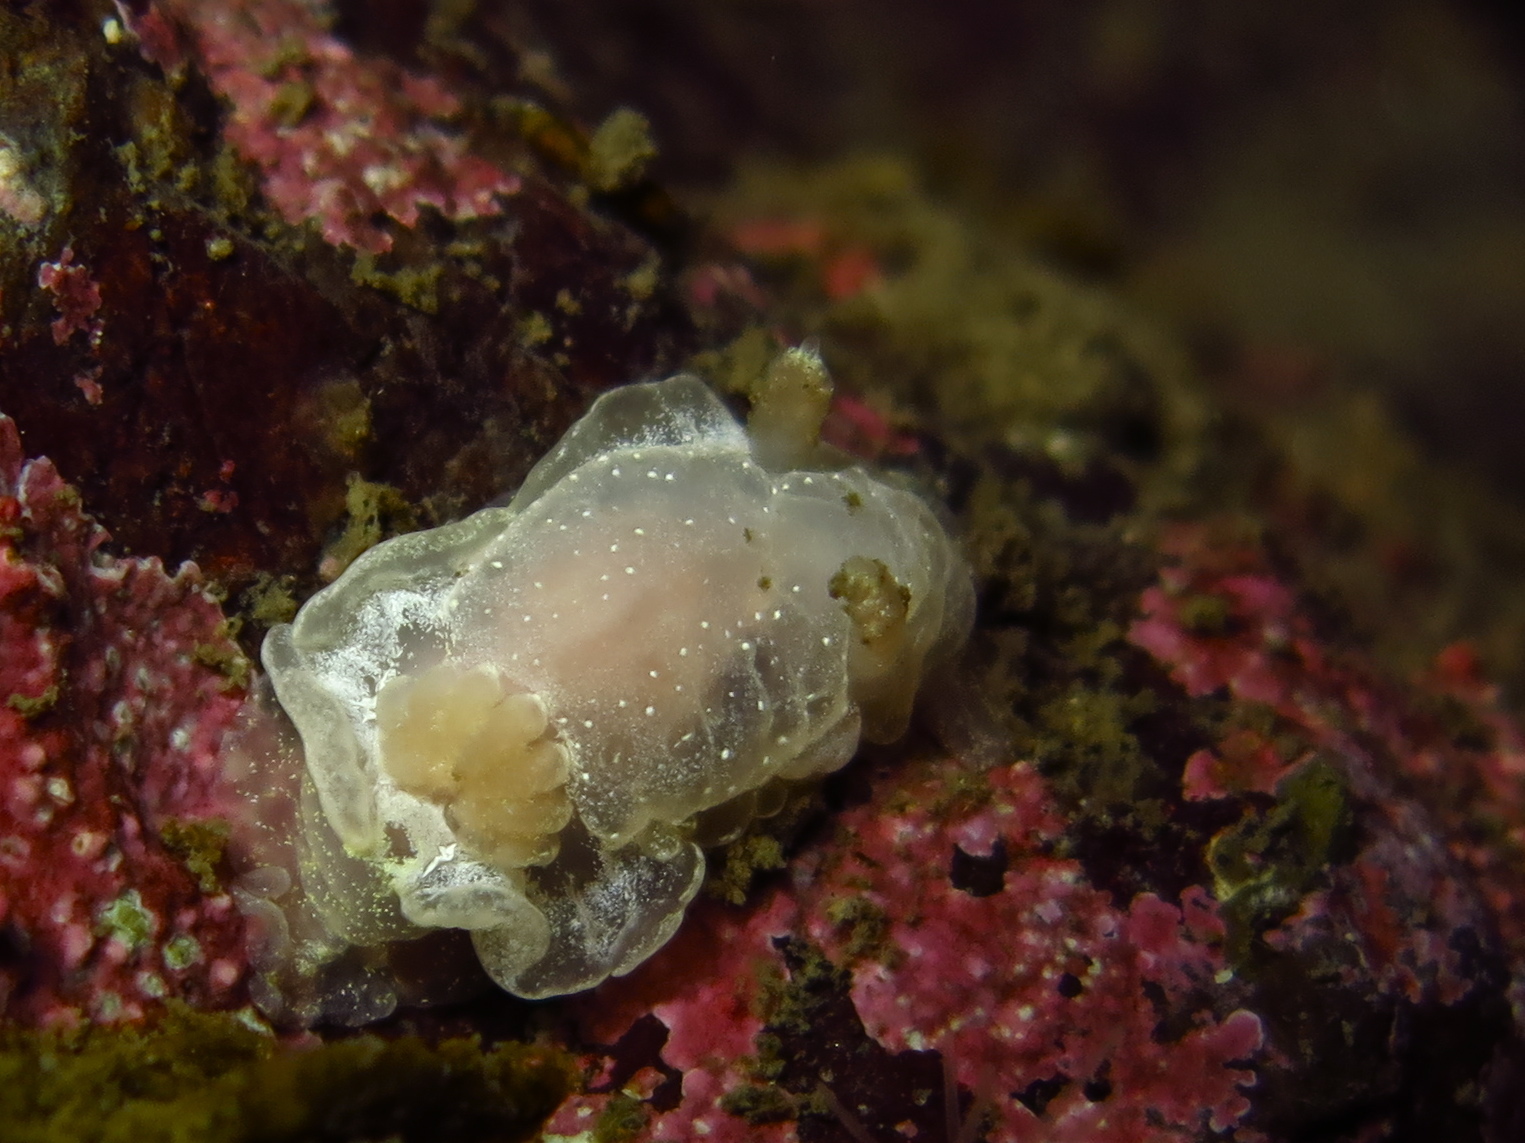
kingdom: Animalia
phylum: Mollusca
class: Gastropoda
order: Nudibranchia
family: Goniodorididae
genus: Okenia
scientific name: Okenia
